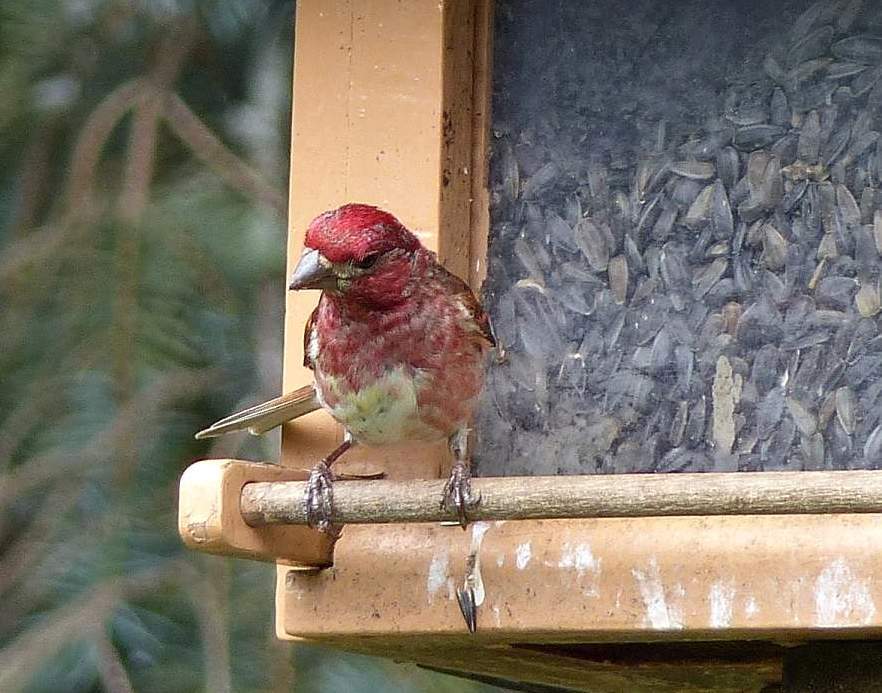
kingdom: Animalia
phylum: Chordata
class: Aves
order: Passeriformes
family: Fringillidae
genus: Haemorhous
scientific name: Haemorhous purpureus
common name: Purple finch
